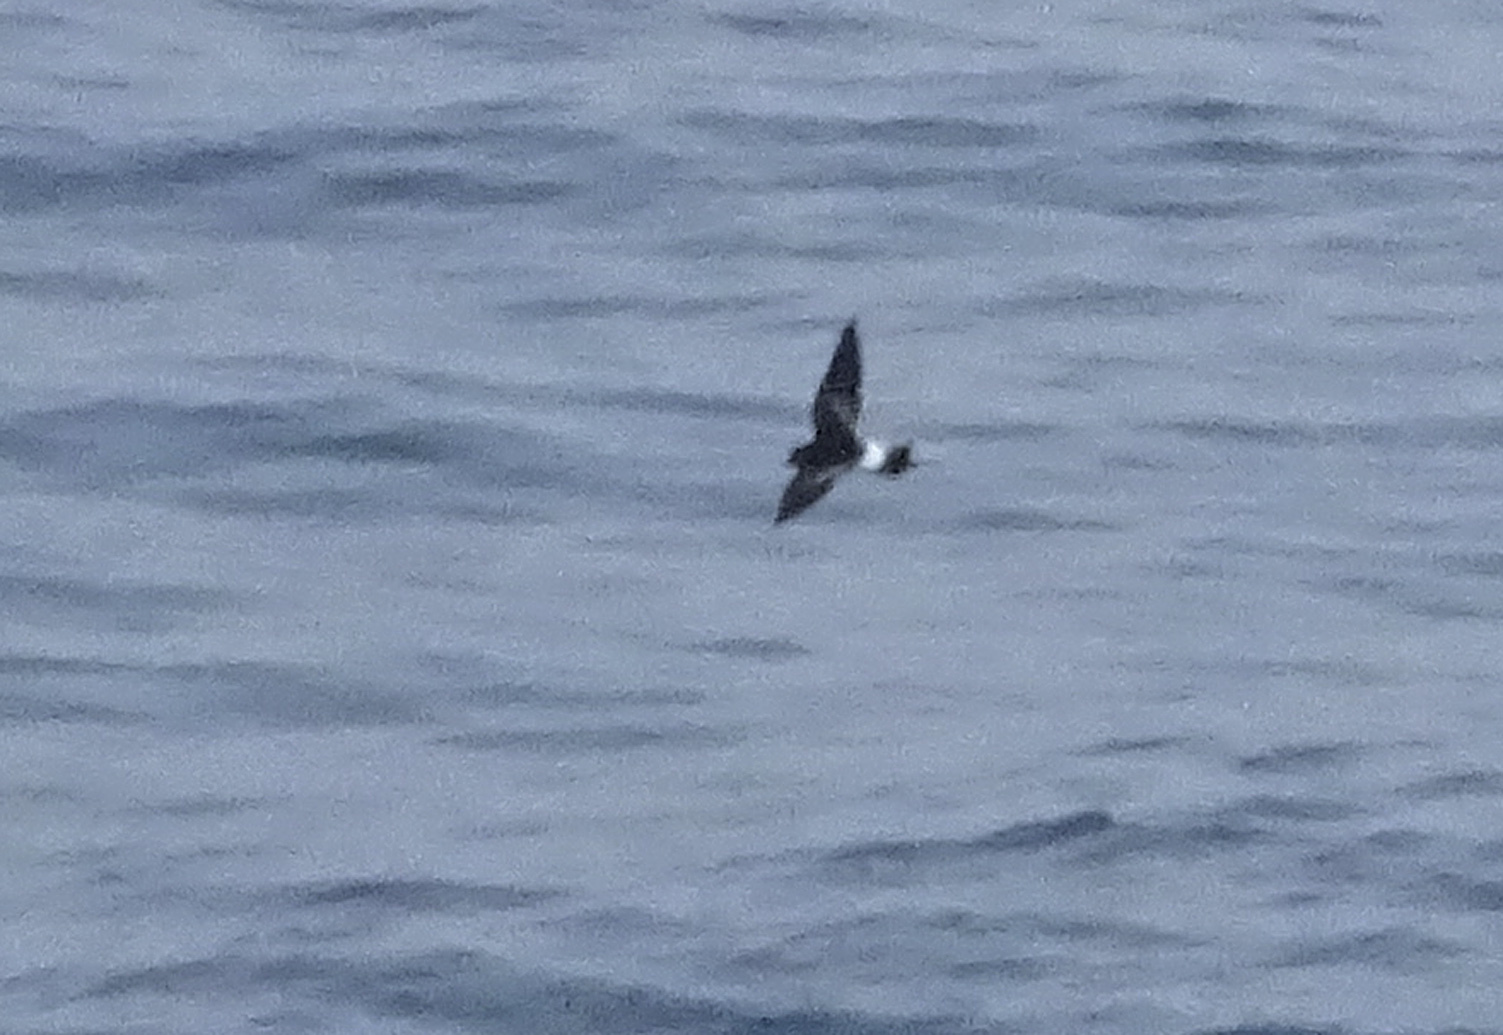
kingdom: Animalia
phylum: Chordata
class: Aves
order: Procellariiformes
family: Hydrobatidae
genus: Oceanites
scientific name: Oceanites oceanicus
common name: Wilson's storm petrel
